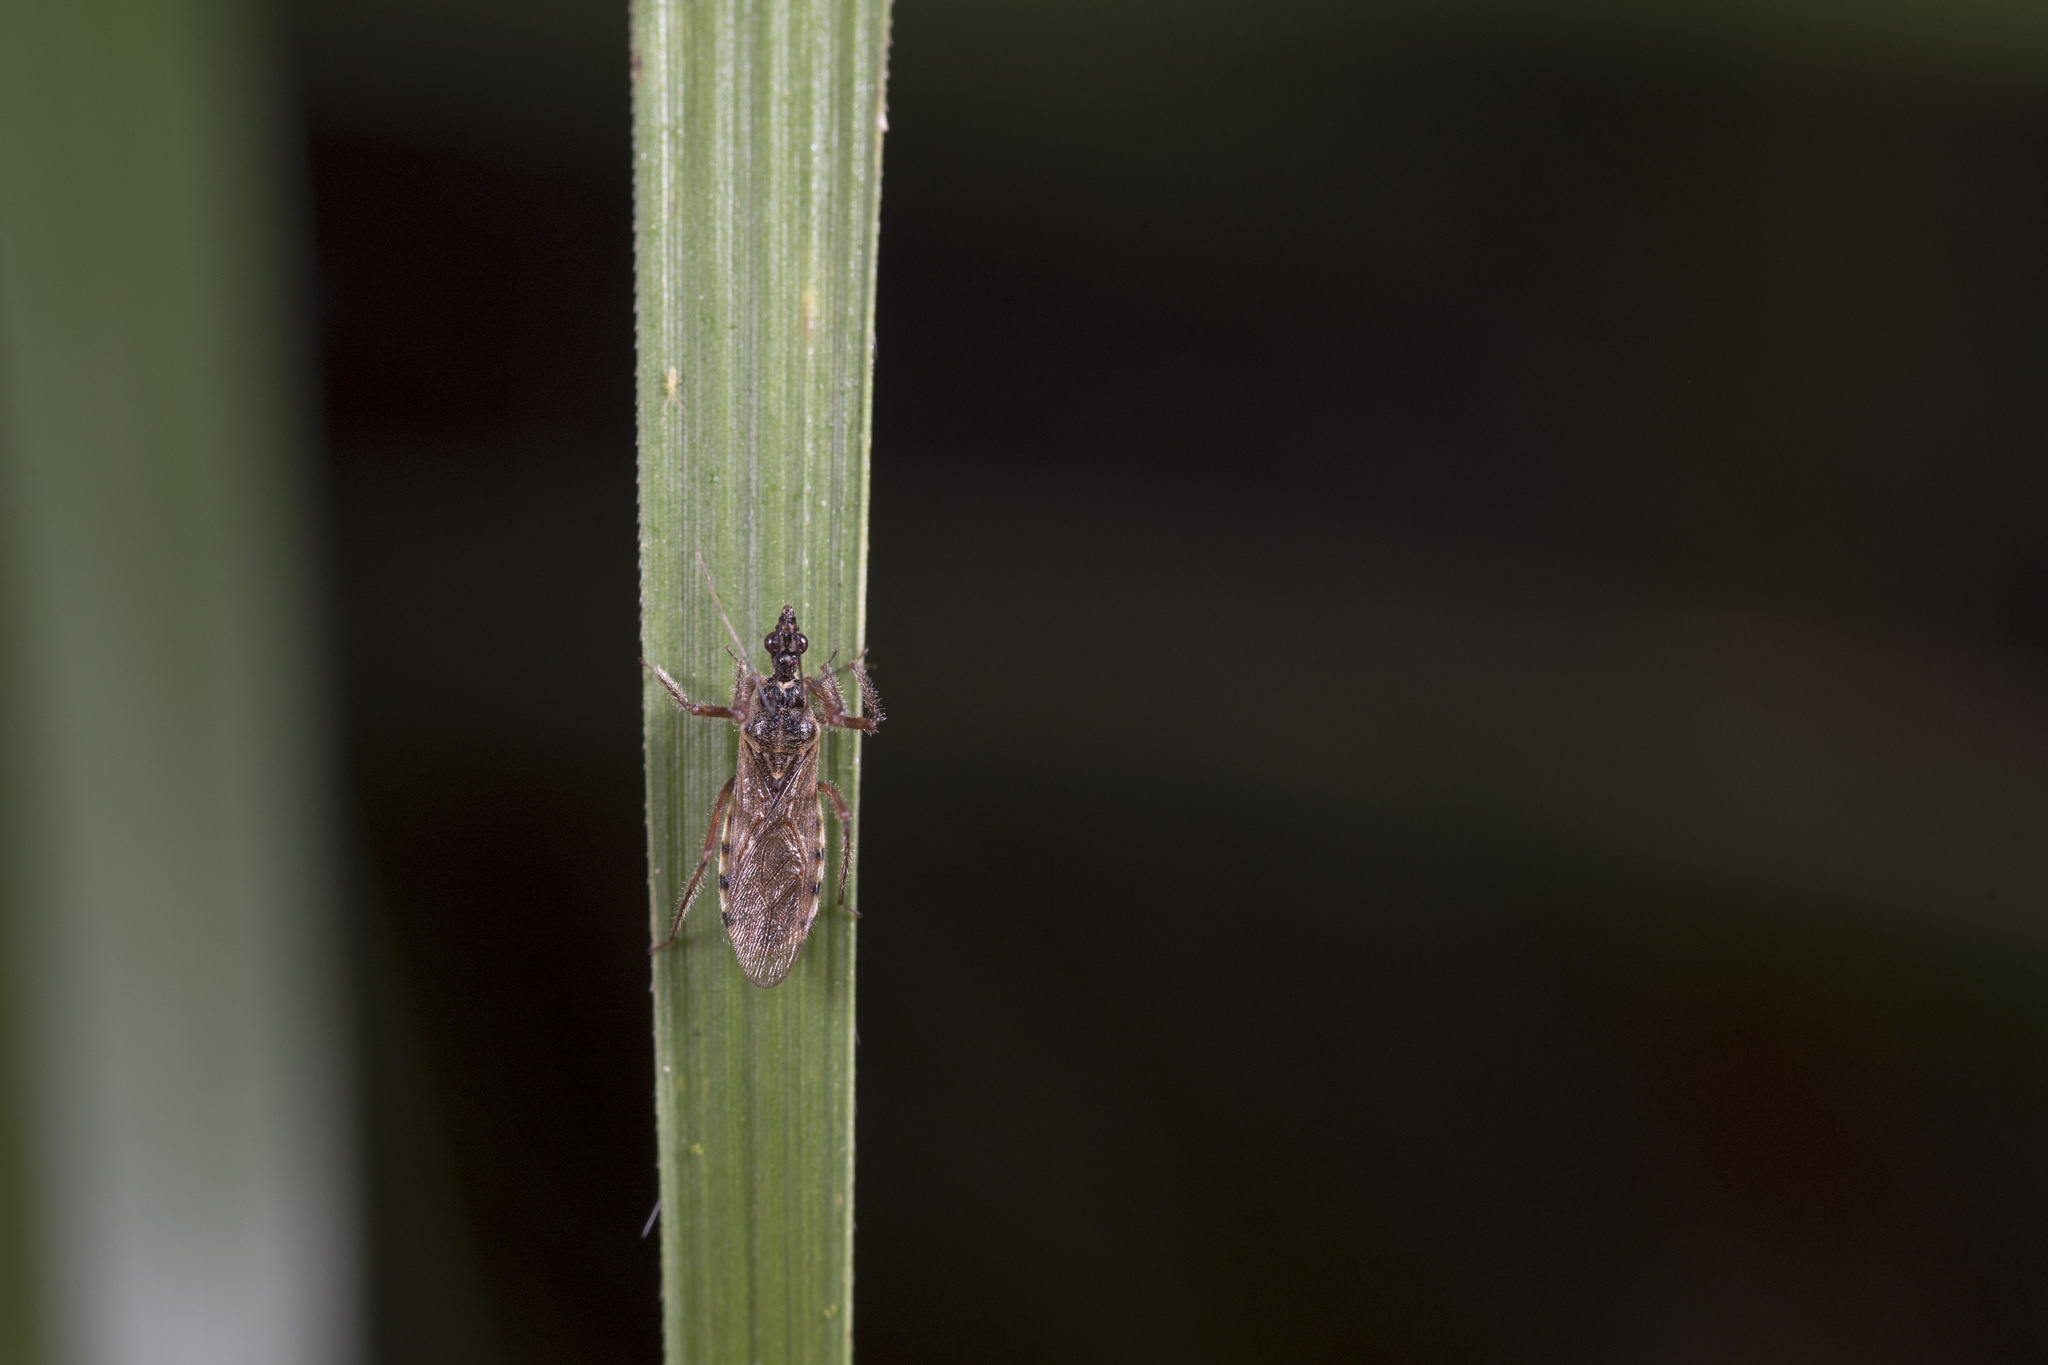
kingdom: Animalia
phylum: Arthropoda
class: Insecta
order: Hemiptera
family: Reduviidae
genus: Sphedanolestes
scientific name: Sphedanolestes albipilosus
